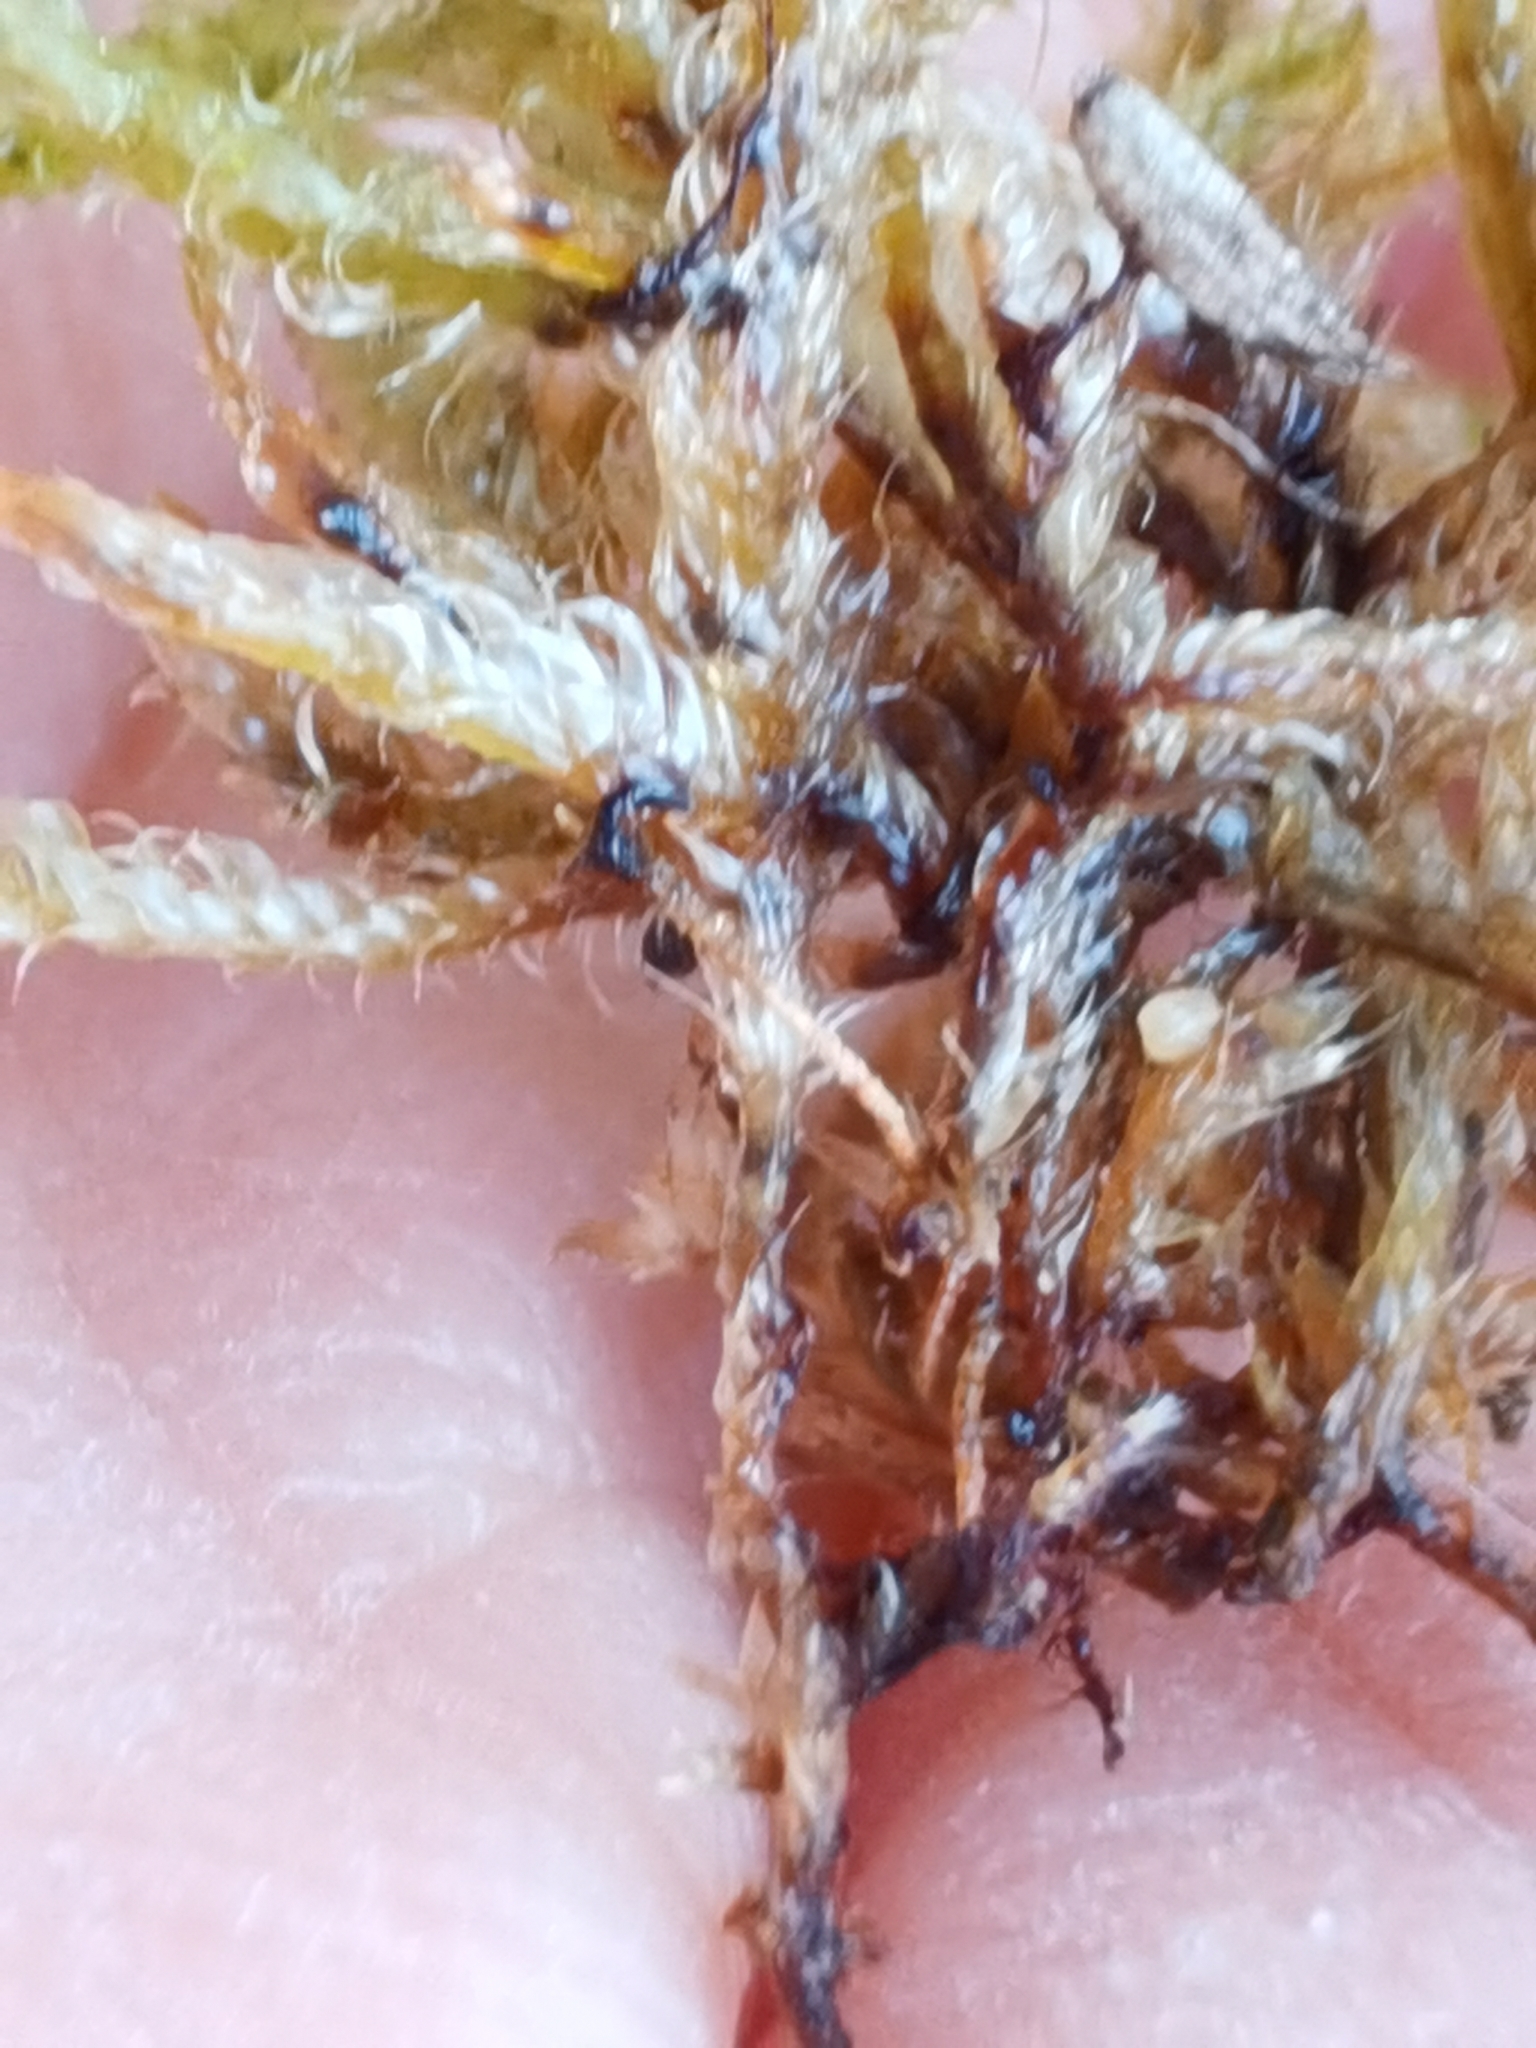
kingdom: Plantae
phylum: Bryophyta
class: Bryopsida
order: Hypnales
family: Hypnaceae
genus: Hypnum
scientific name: Hypnum cupressiforme
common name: Cypress-leaved plait-moss
